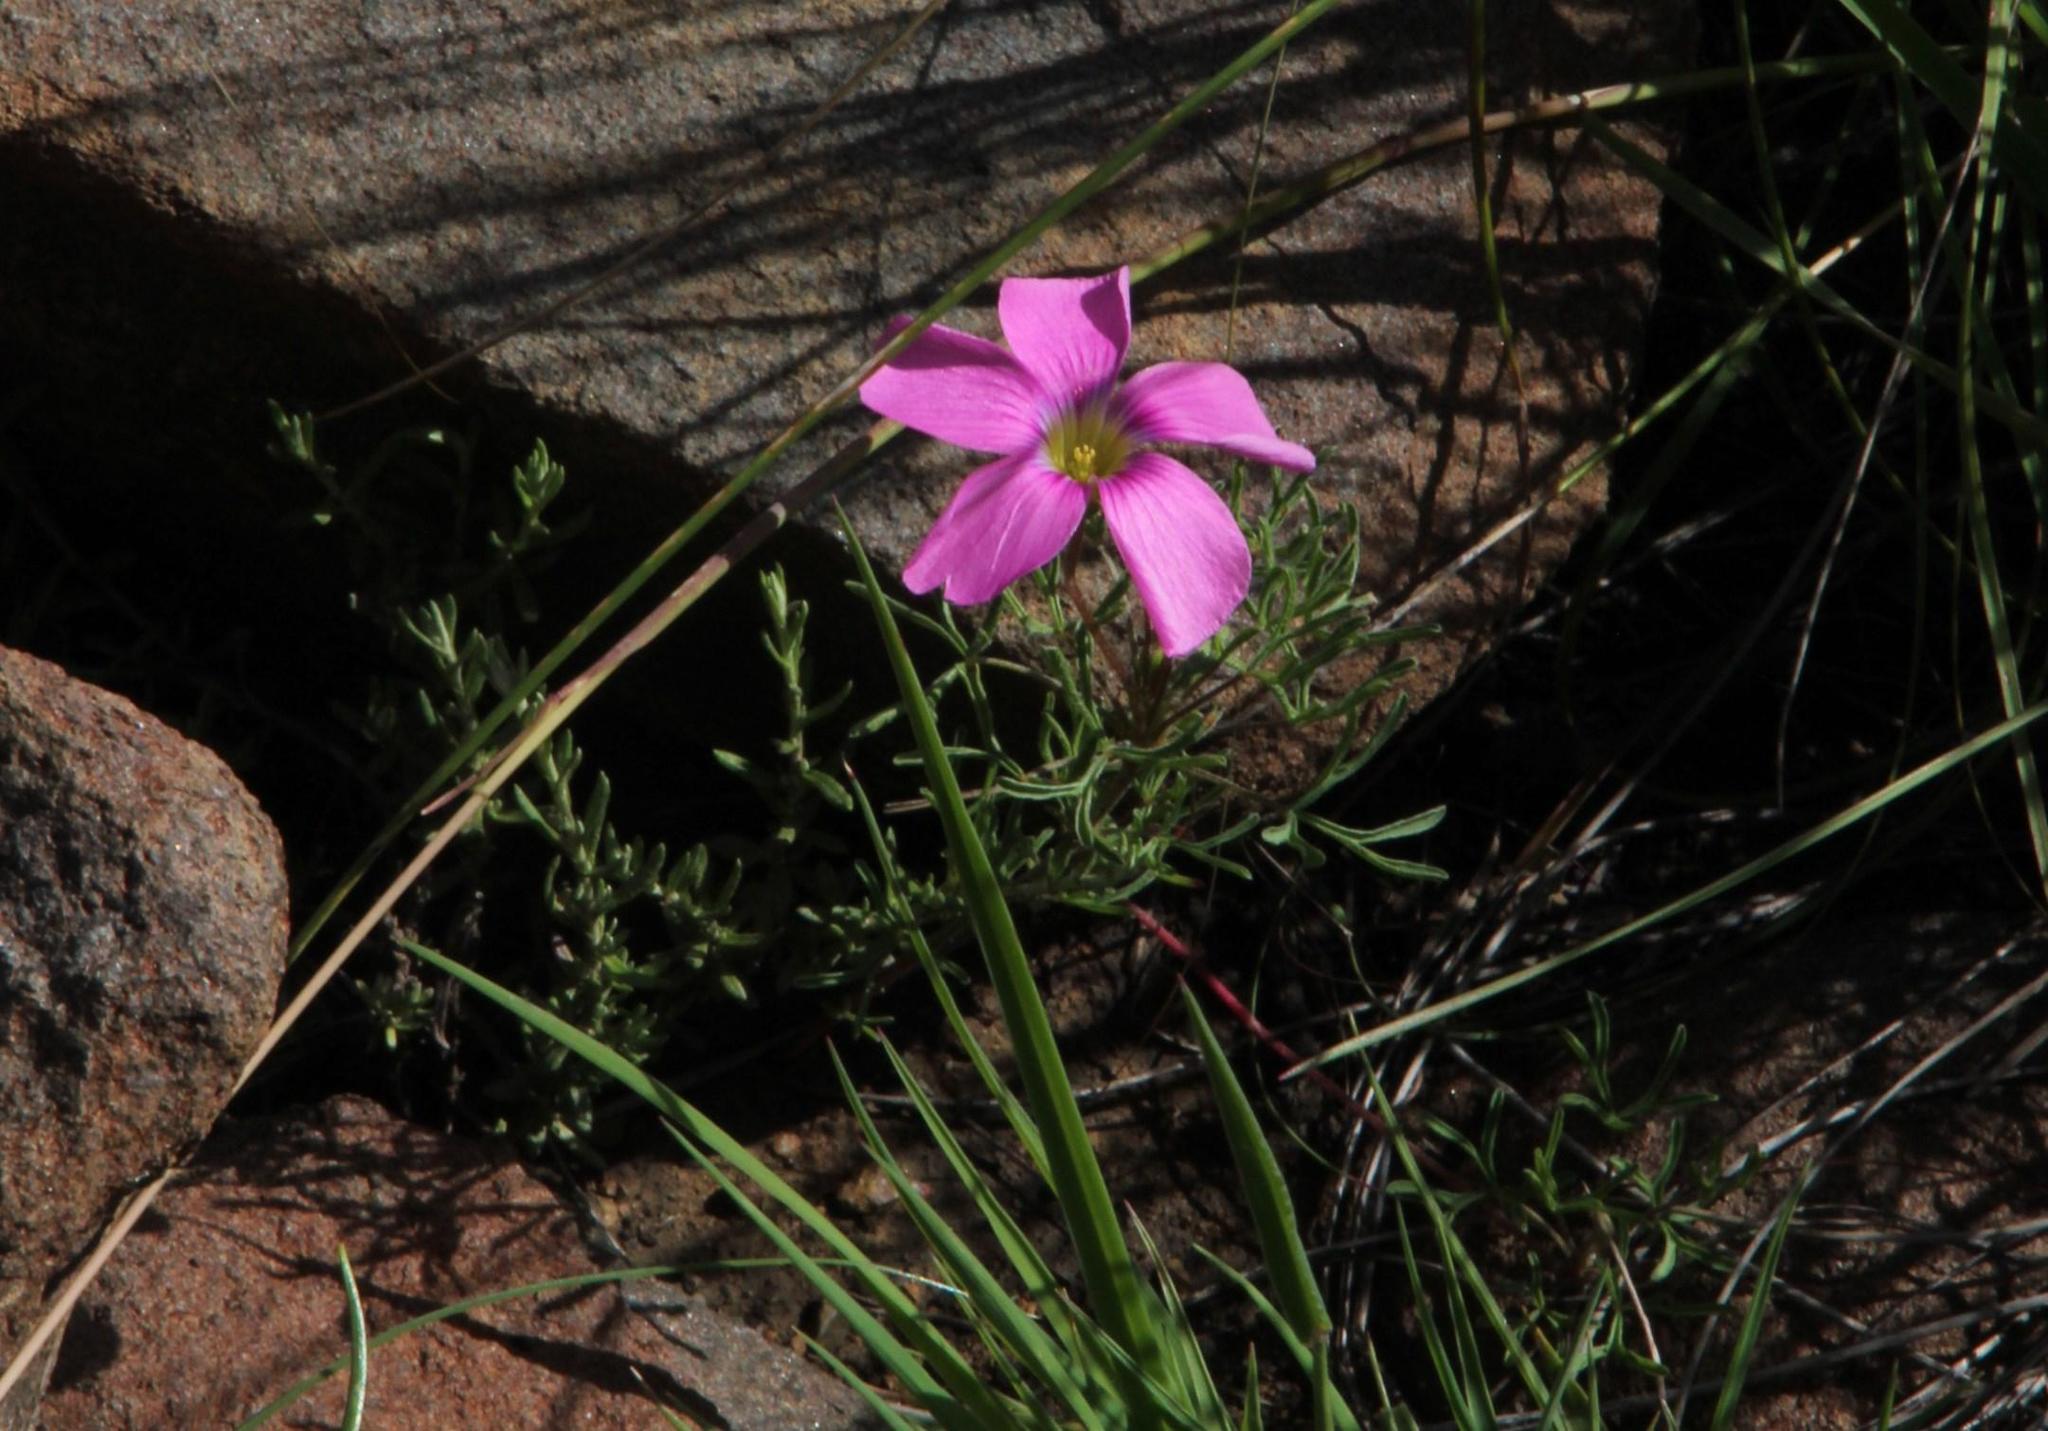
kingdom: Plantae
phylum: Tracheophyta
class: Magnoliopsida
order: Oxalidales
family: Oxalidaceae
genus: Oxalis
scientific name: Oxalis bifurca
